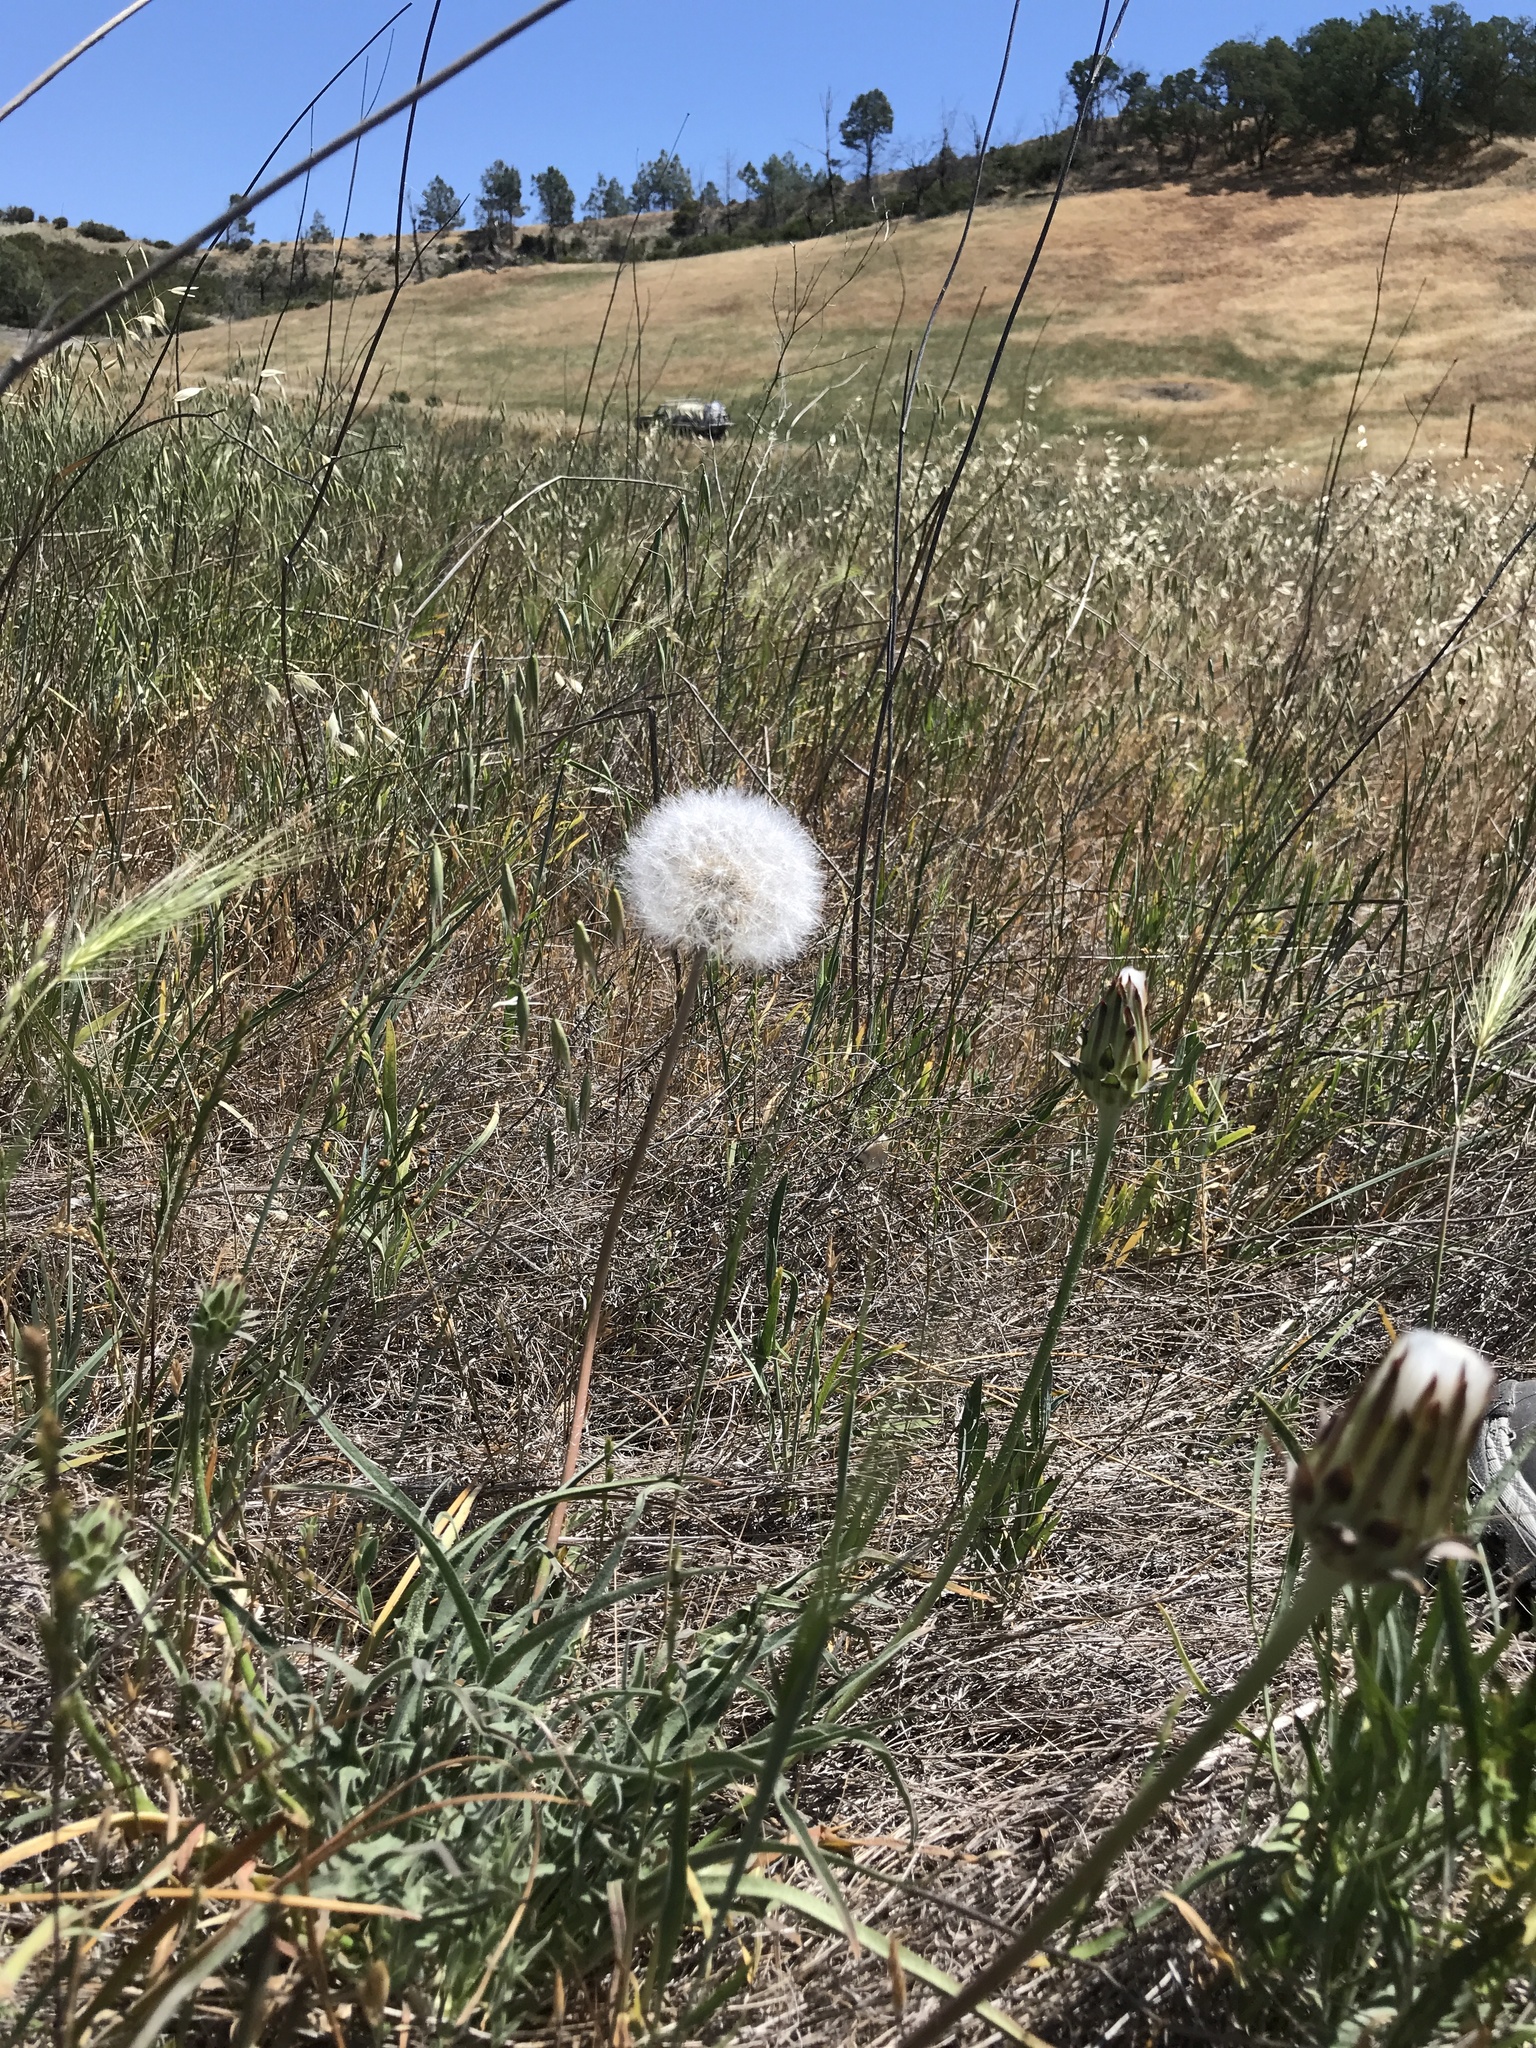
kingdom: Plantae
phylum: Tracheophyta
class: Magnoliopsida
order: Asterales
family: Asteraceae
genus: Agoseris
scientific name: Agoseris grandiflora
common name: Grassland agoseris
